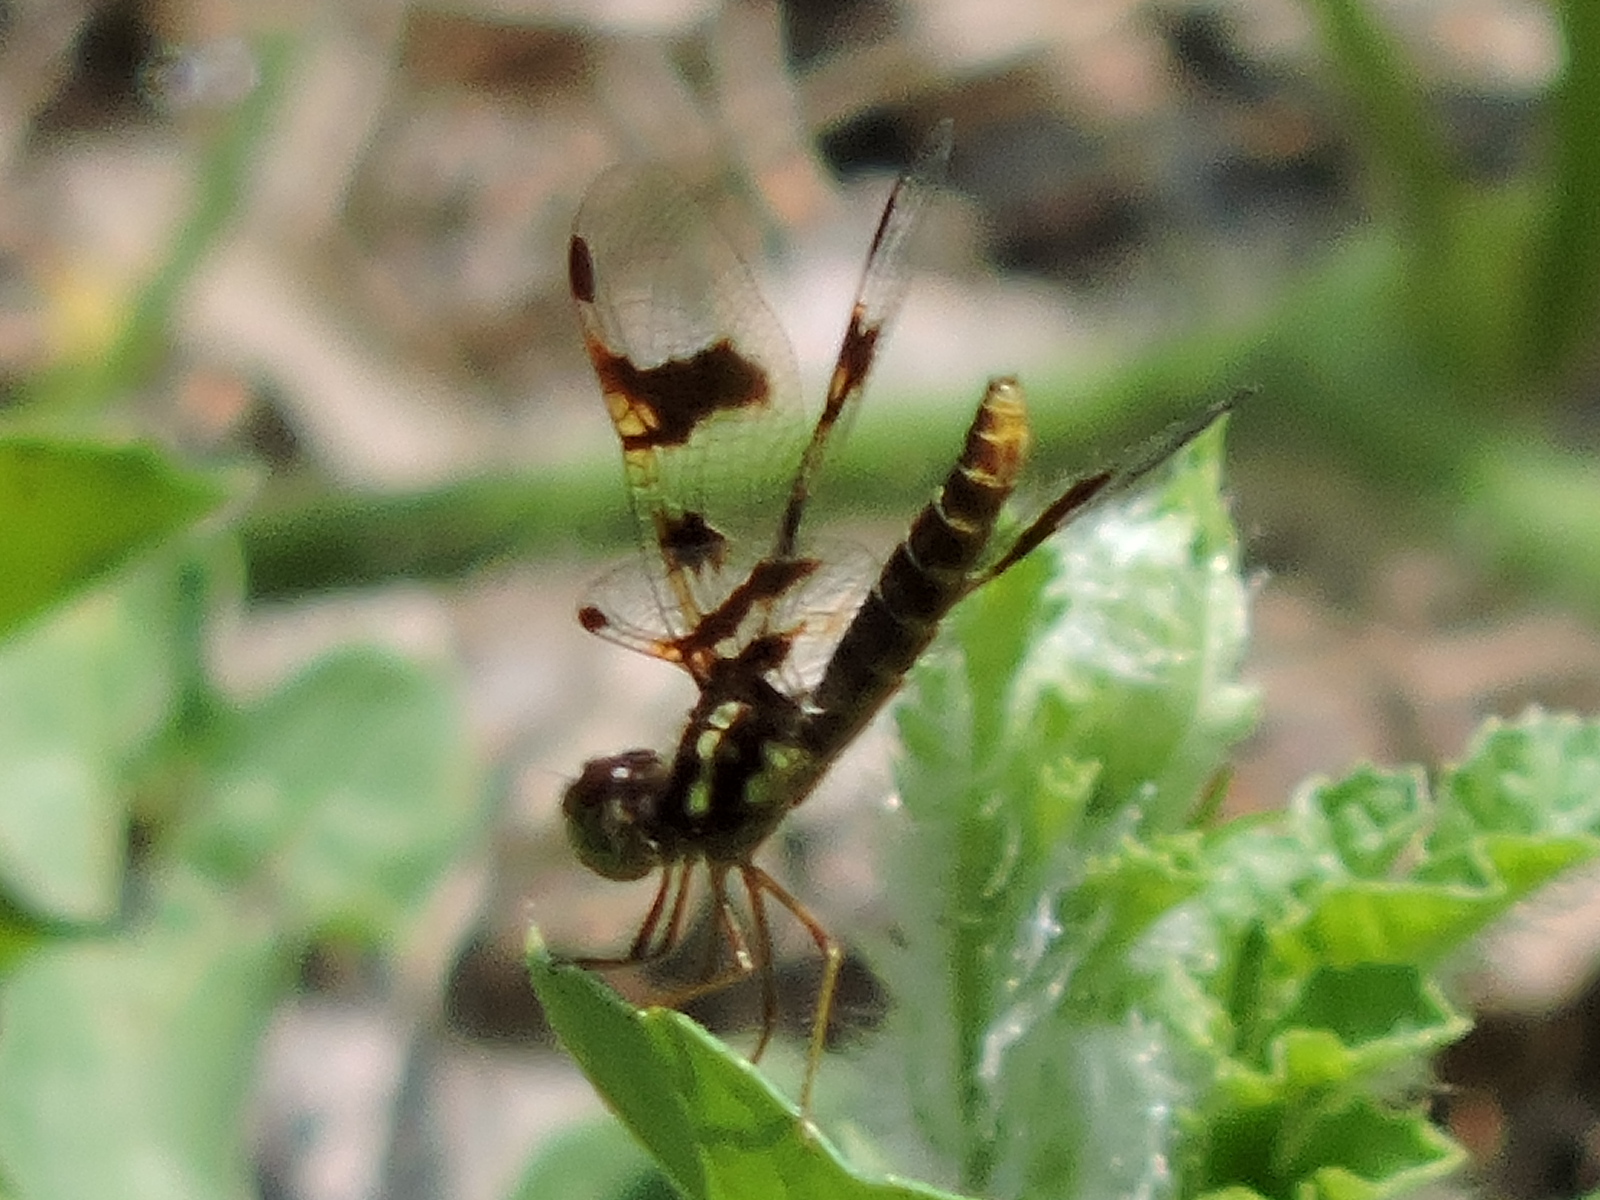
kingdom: Animalia
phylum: Arthropoda
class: Insecta
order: Odonata
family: Libellulidae
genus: Perithemis
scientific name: Perithemis tenera
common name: Eastern amberwing
